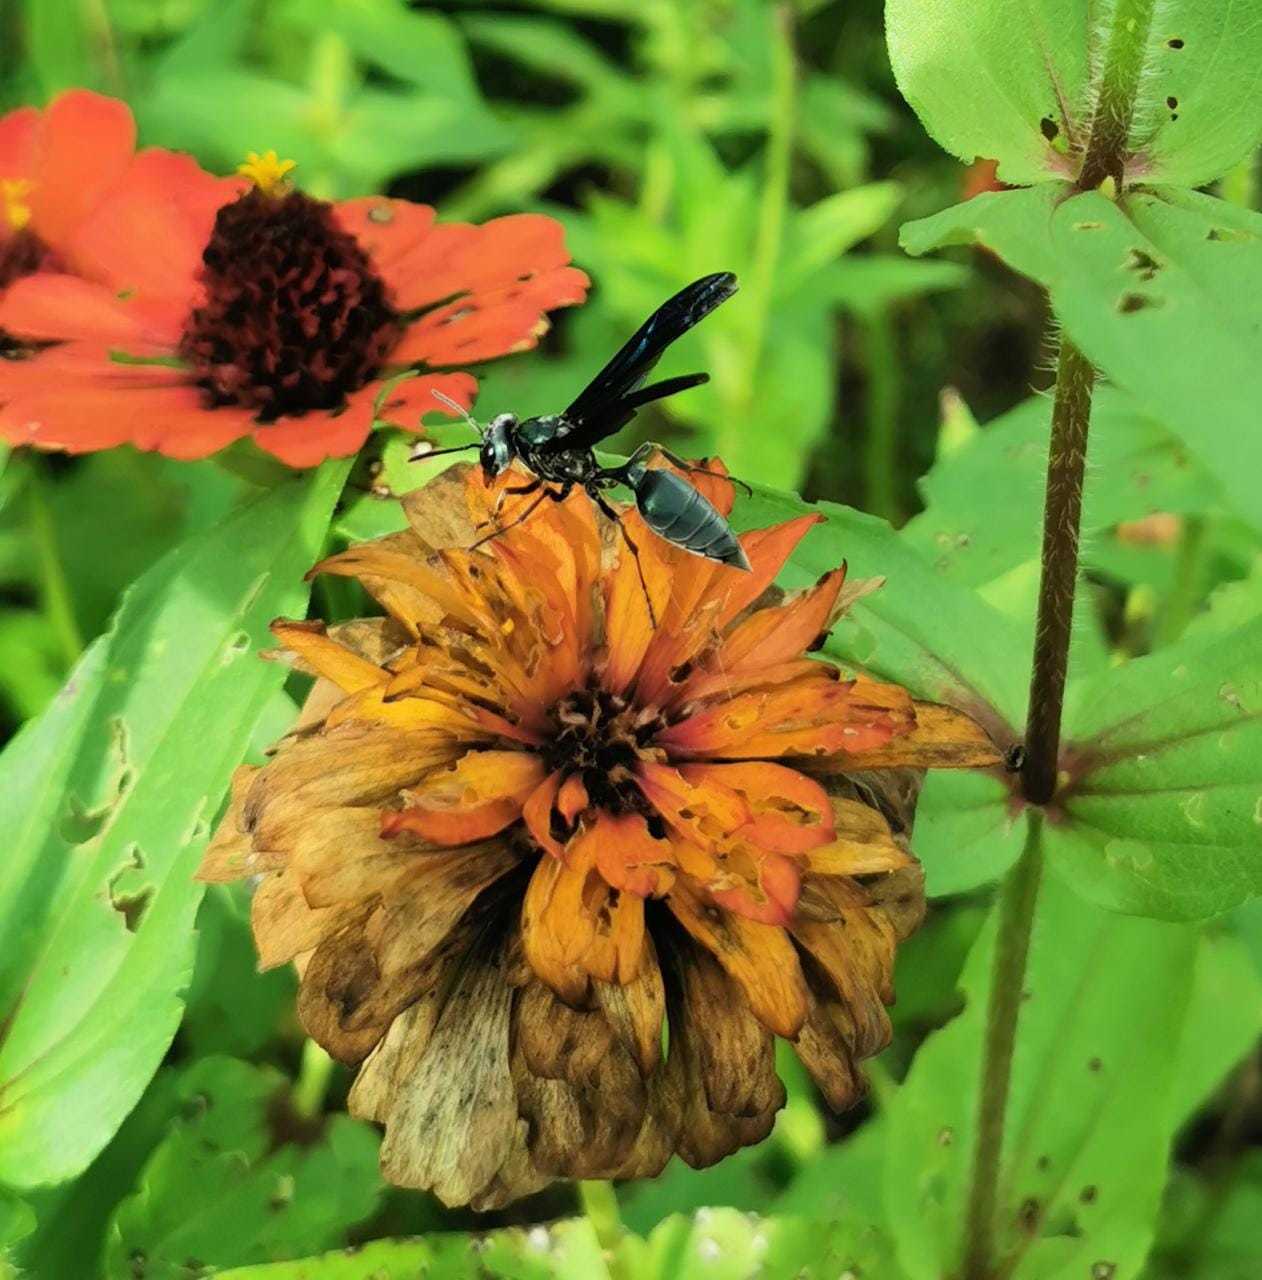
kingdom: Animalia
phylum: Arthropoda
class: Insecta
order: Hymenoptera
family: Vespidae
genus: Synoeca
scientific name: Synoeca septentrionalis
